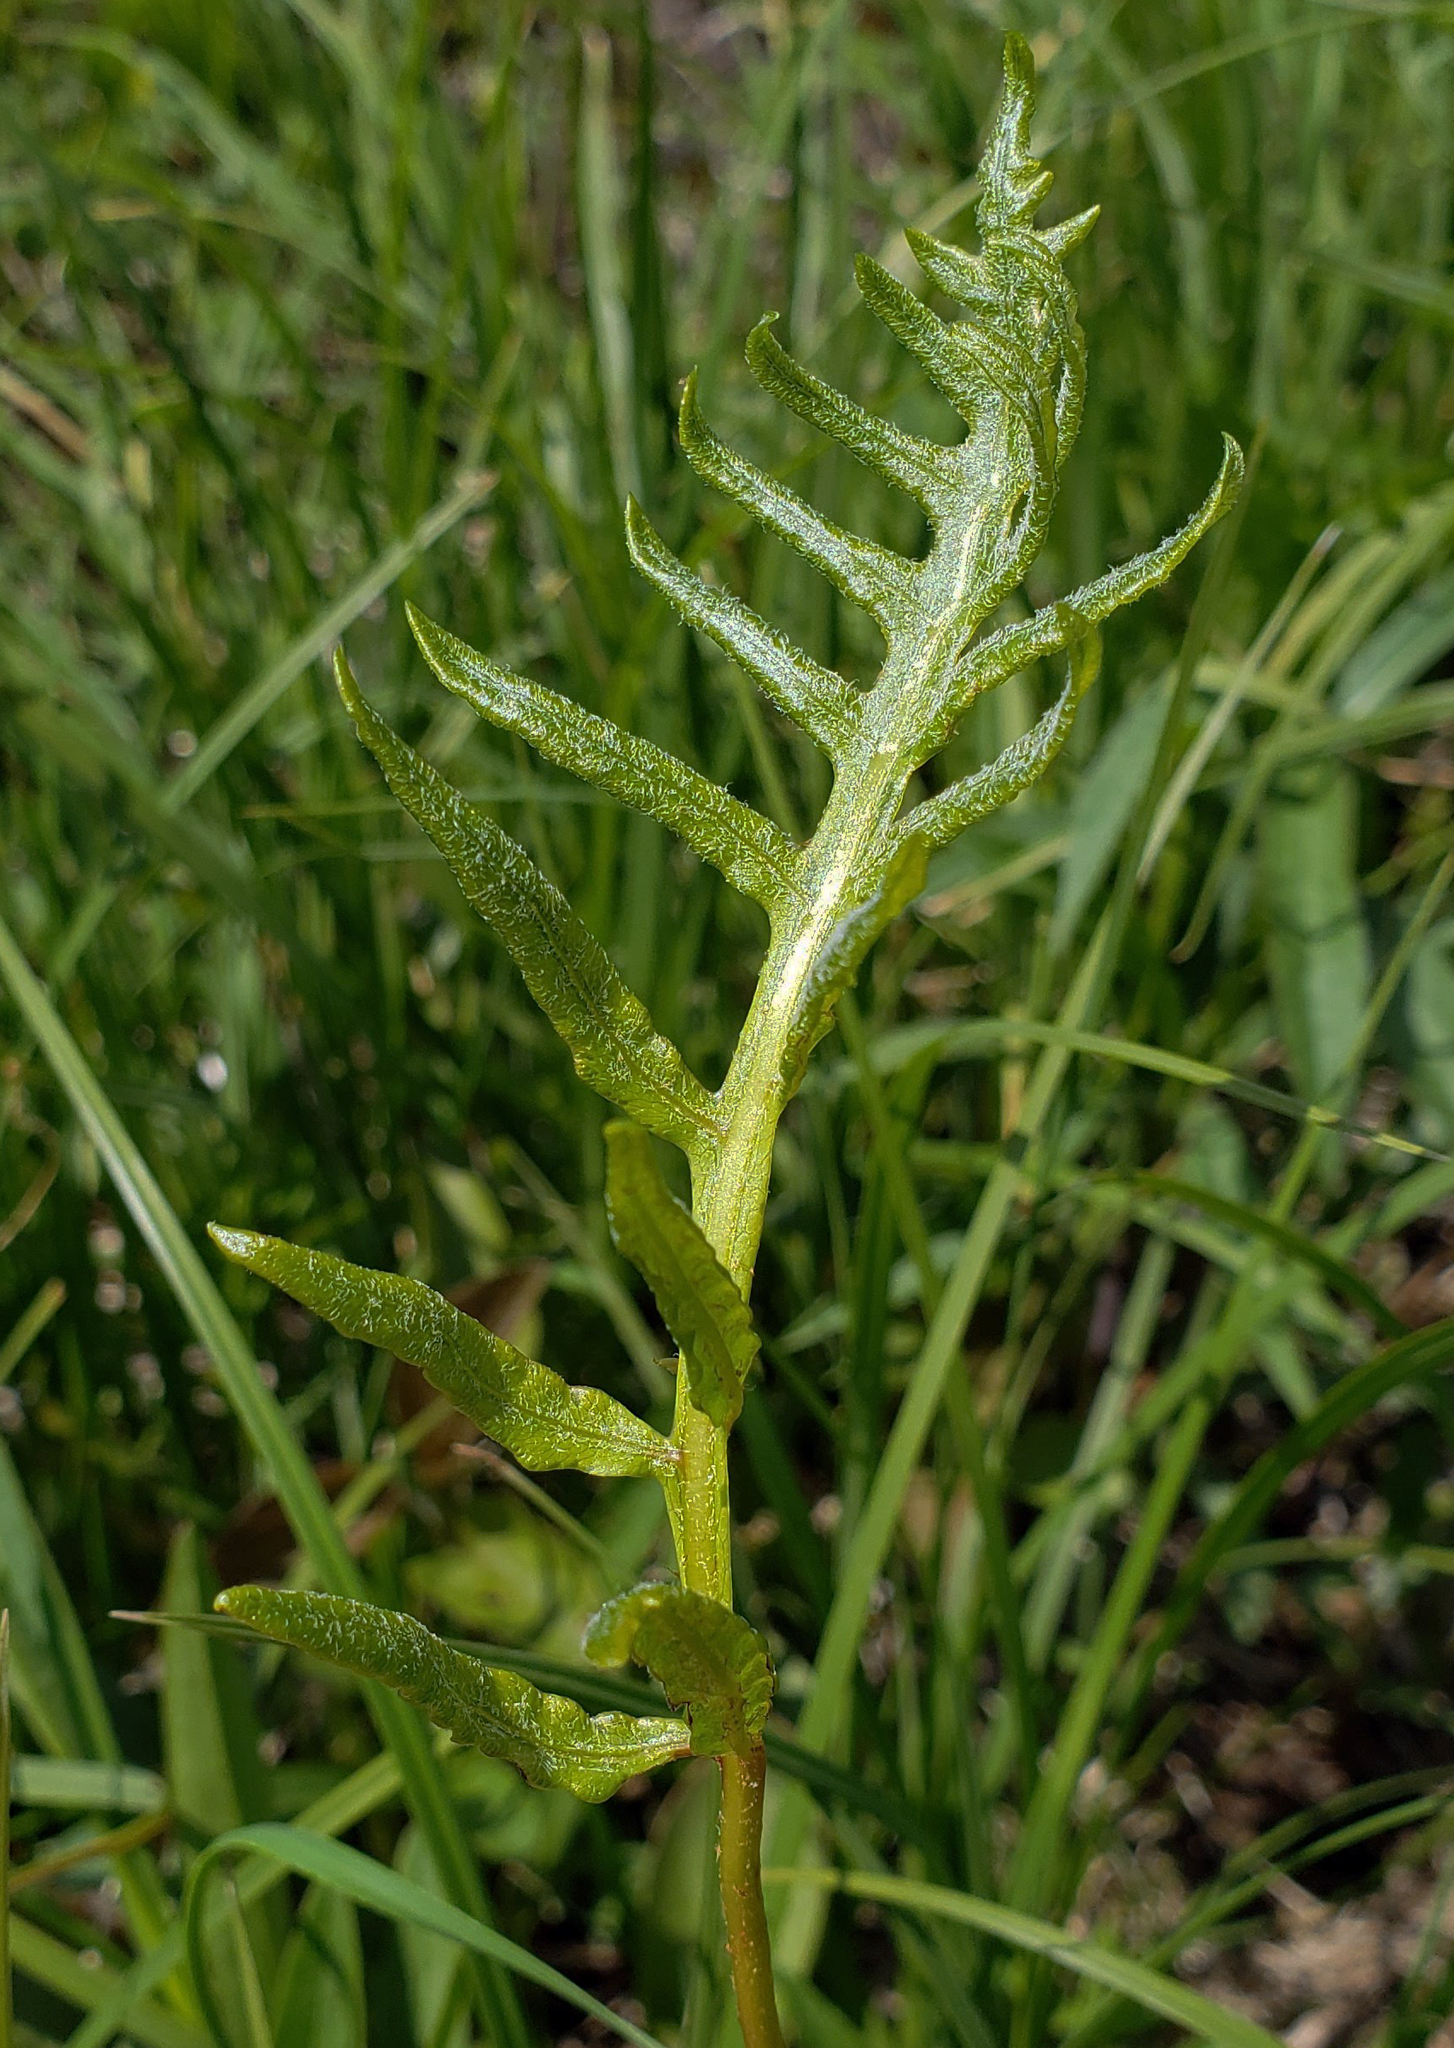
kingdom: Plantae
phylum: Tracheophyta
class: Polypodiopsida
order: Polypodiales
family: Onocleaceae
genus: Onoclea
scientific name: Onoclea sensibilis
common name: Sensitive fern
